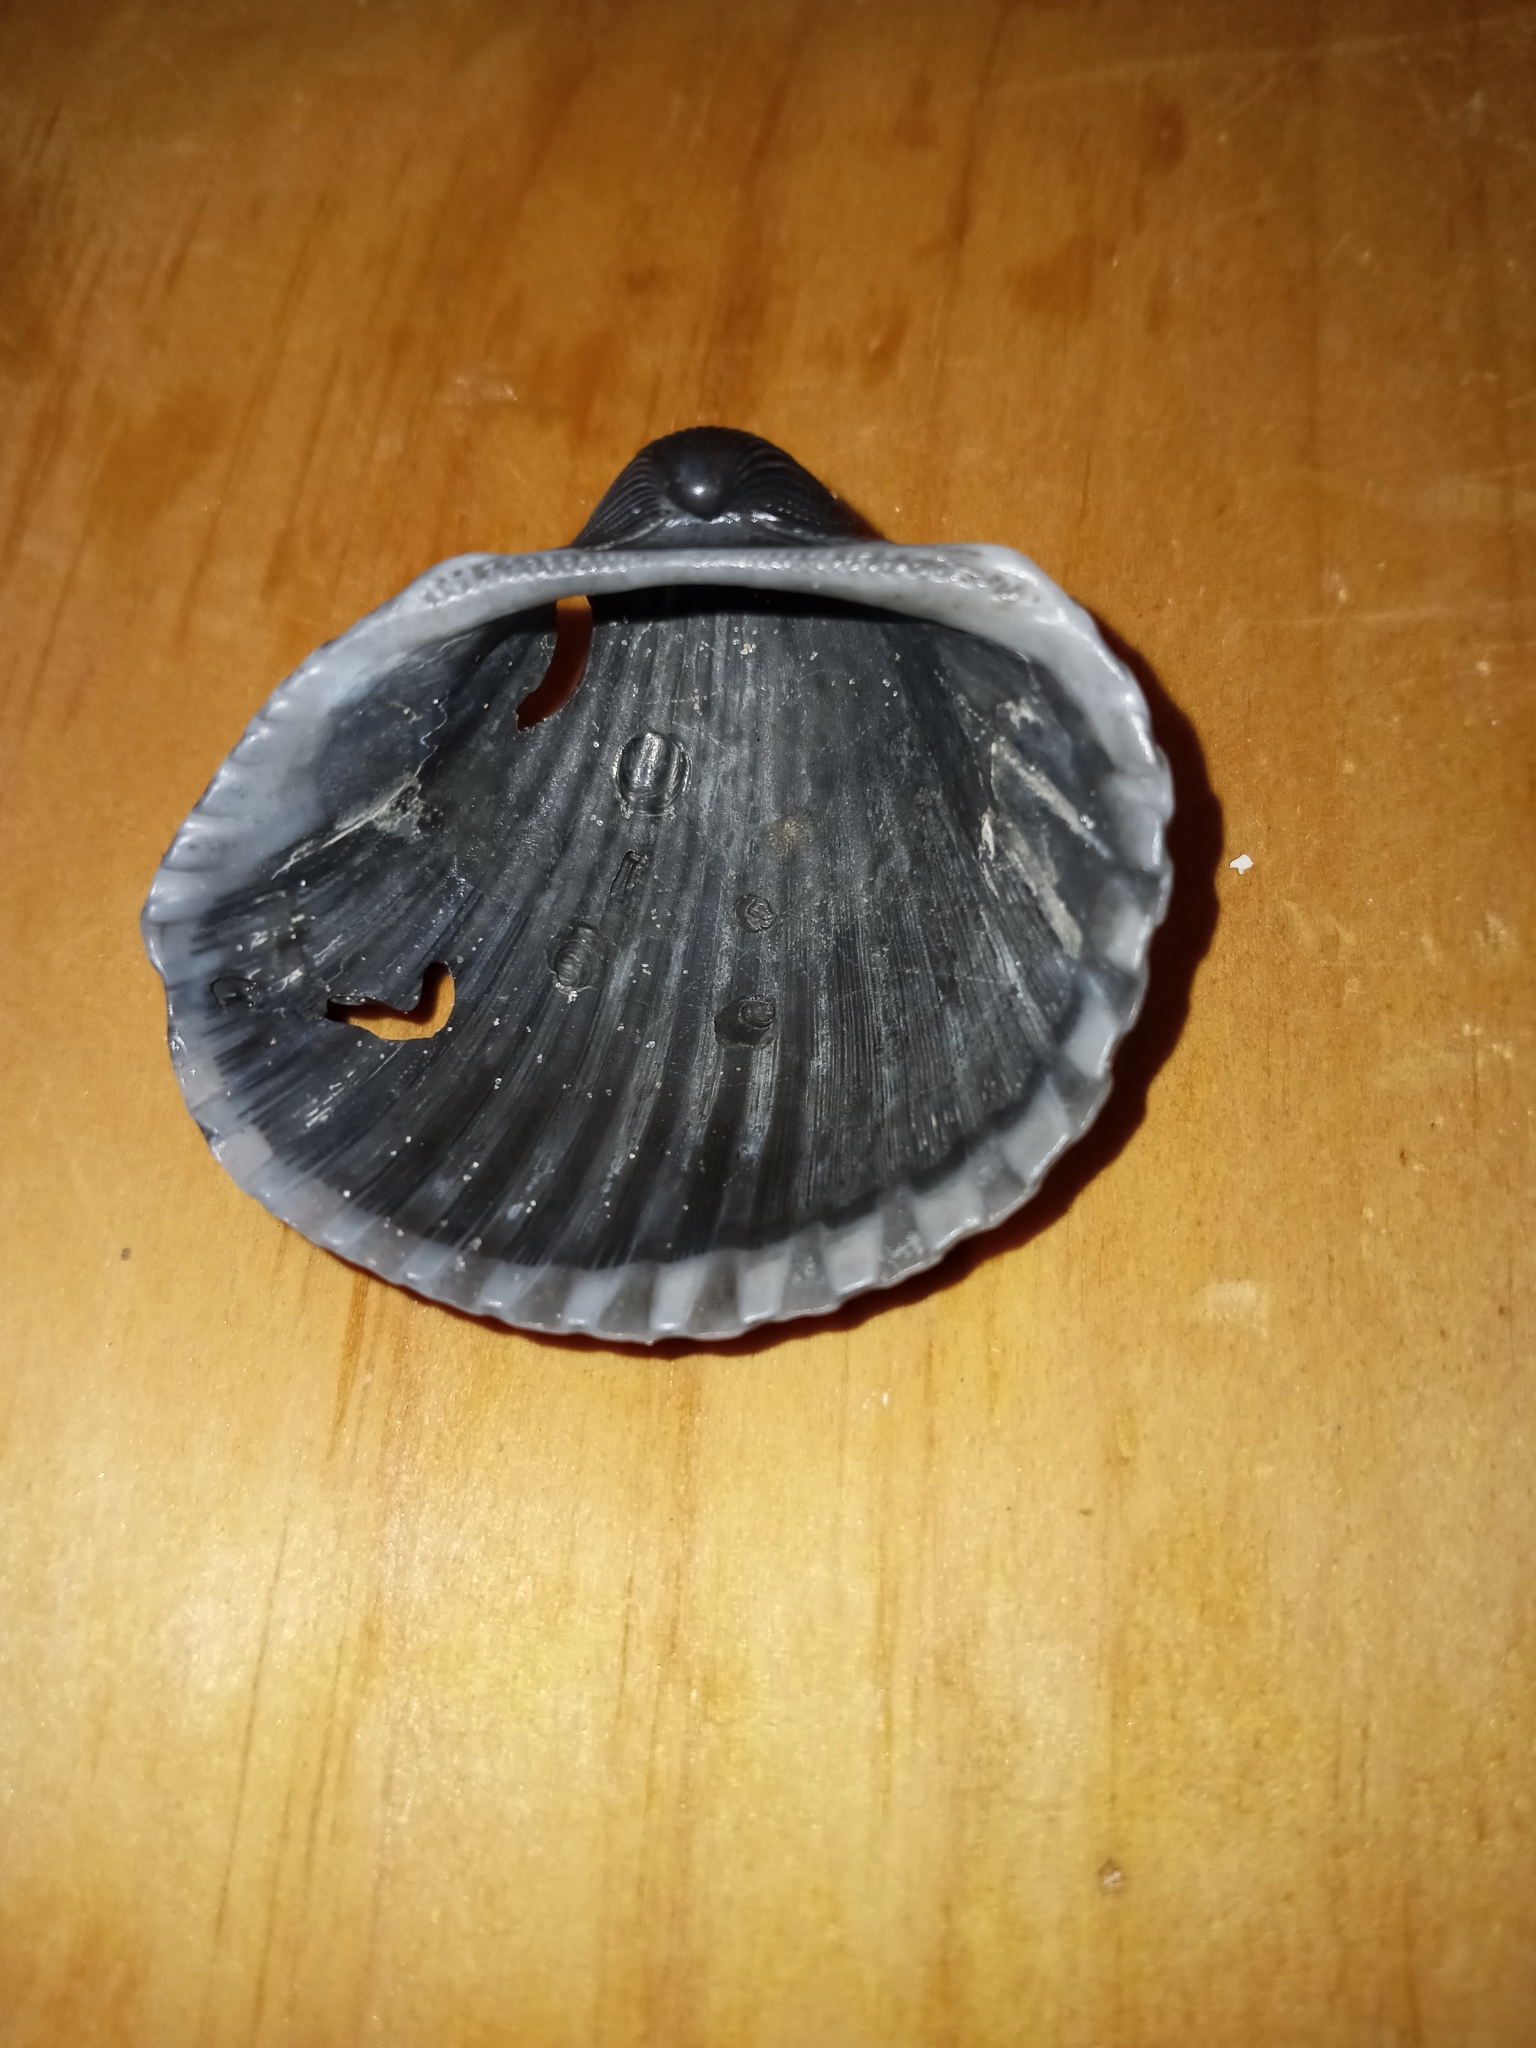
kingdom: Animalia
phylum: Mollusca
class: Bivalvia
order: Arcida
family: Arcidae
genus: Anadara
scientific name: Anadara brasiliana
